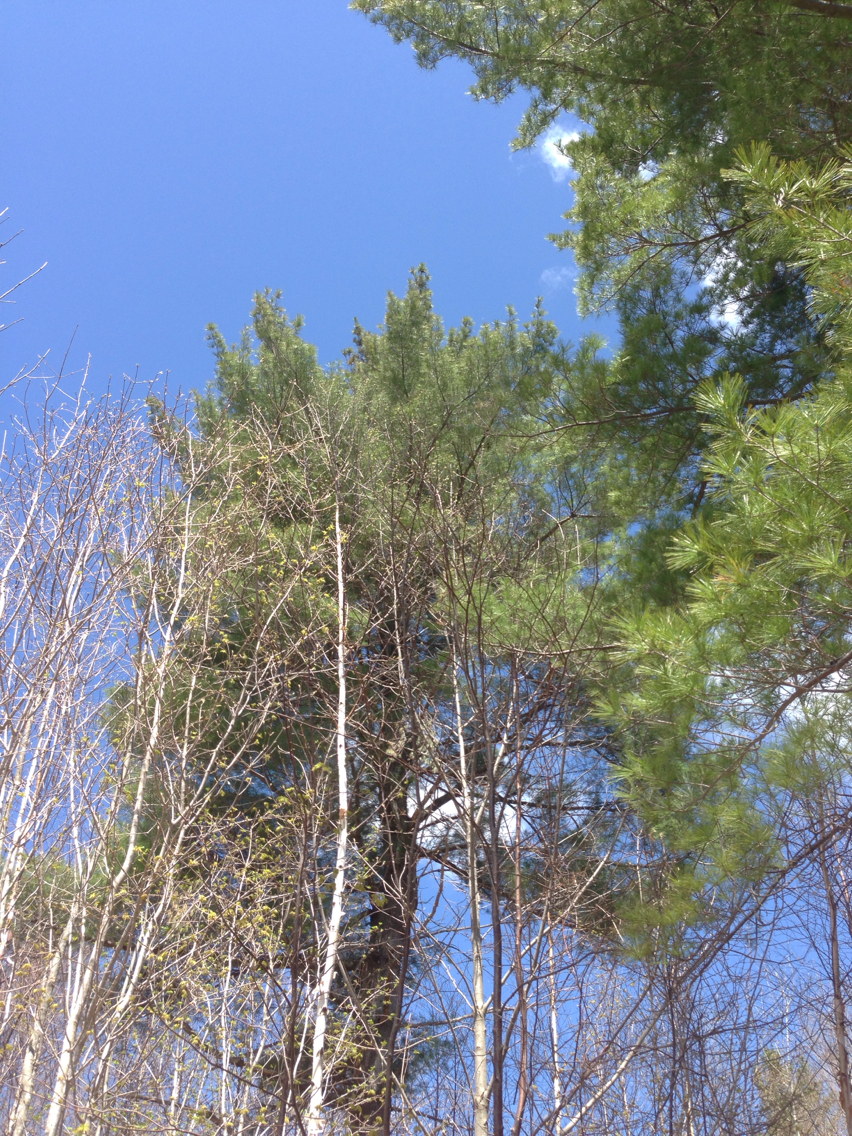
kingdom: Plantae
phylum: Tracheophyta
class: Pinopsida
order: Pinales
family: Pinaceae
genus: Pinus
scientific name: Pinus strobus
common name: Weymouth pine
